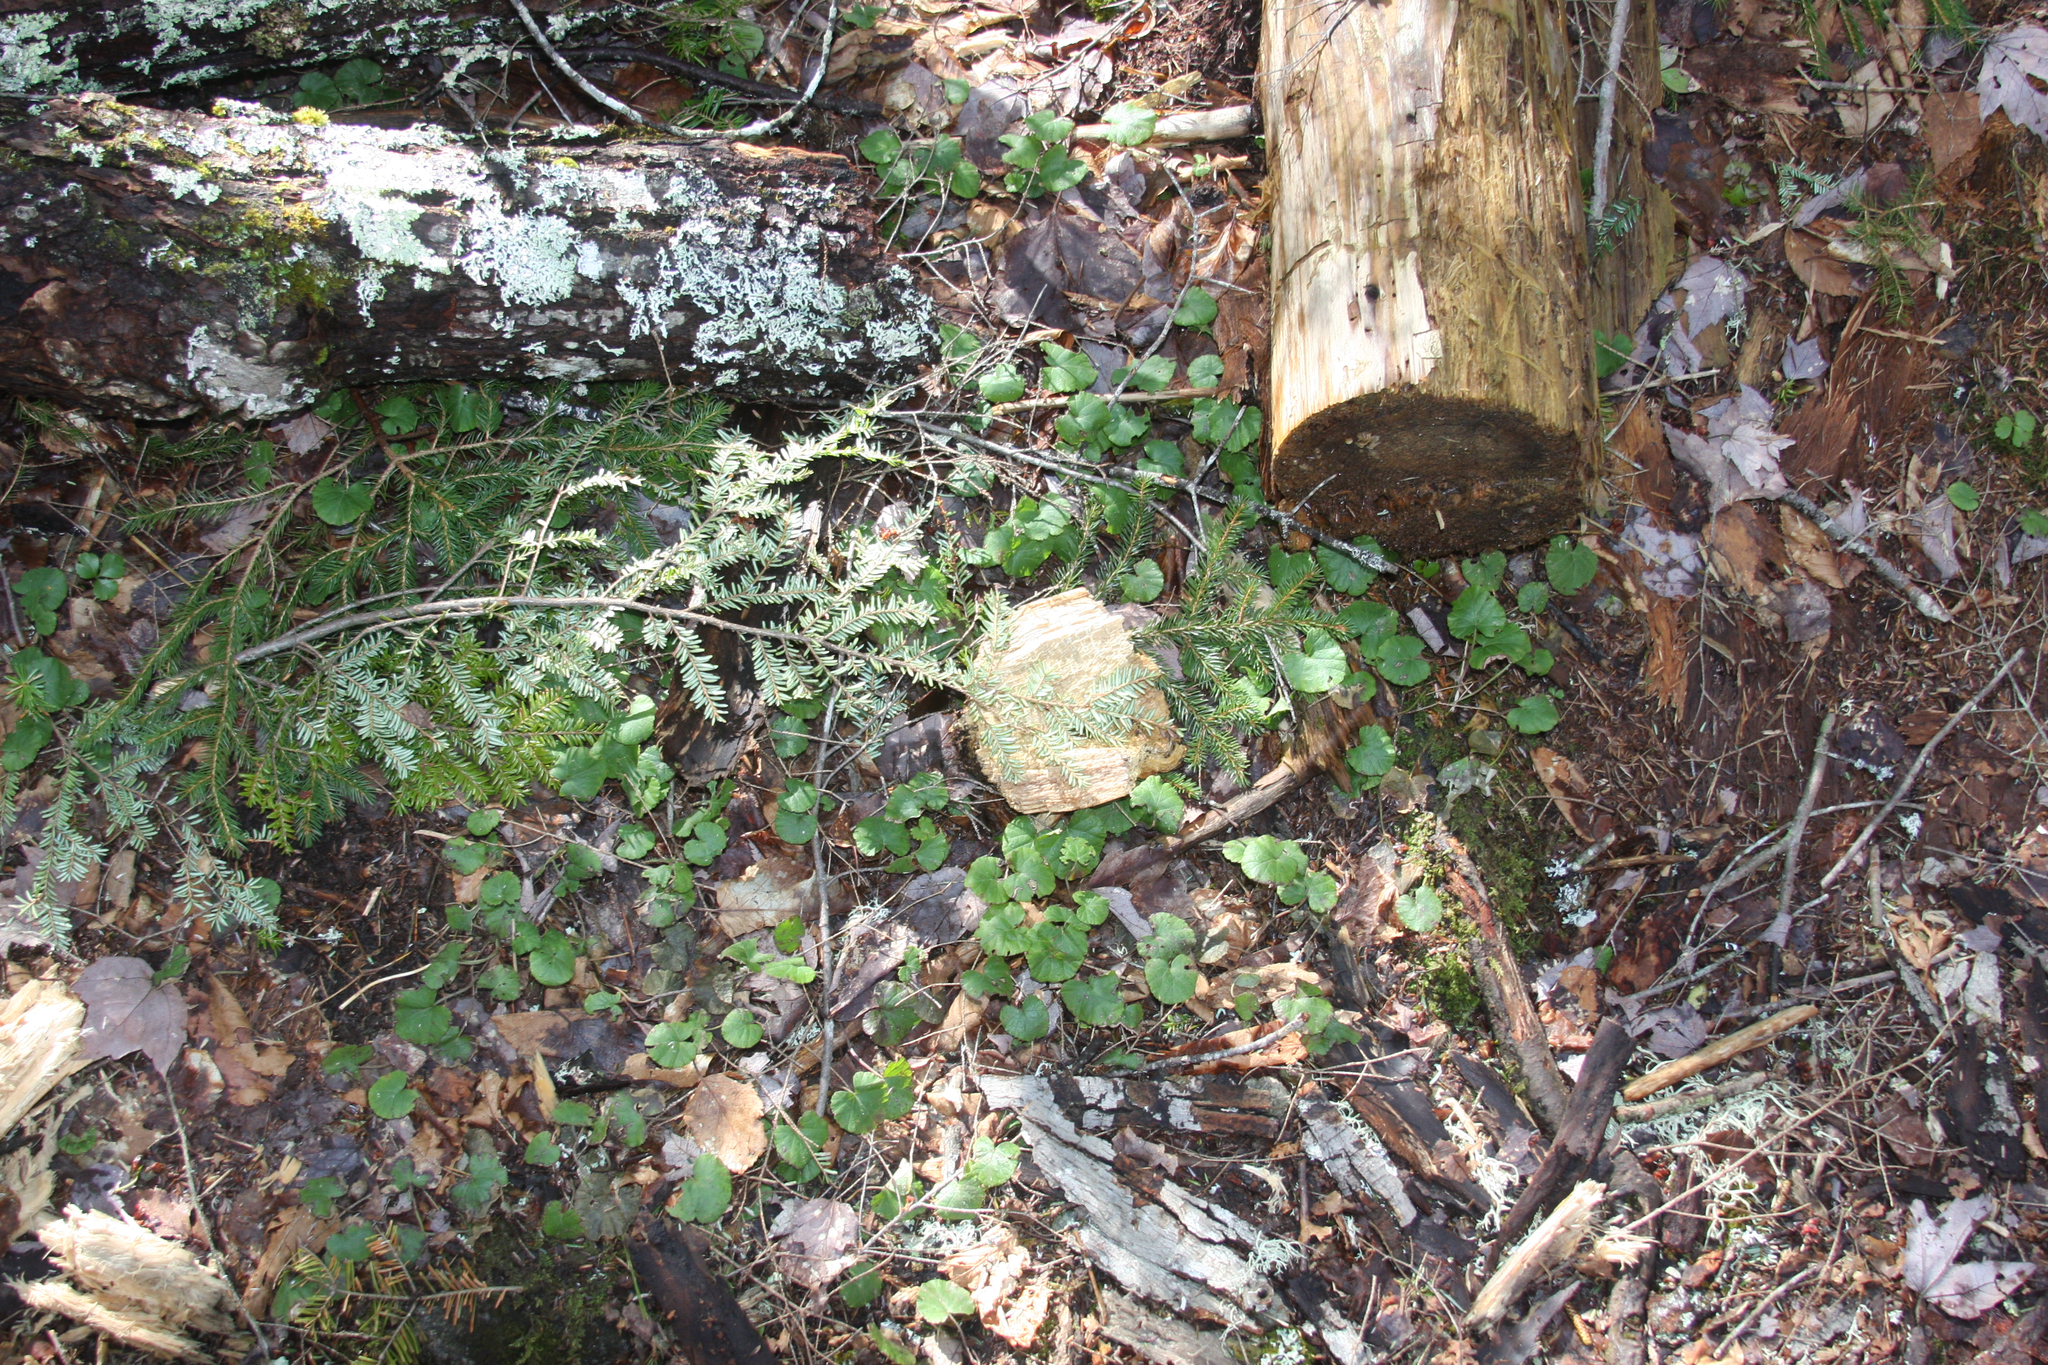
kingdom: Plantae
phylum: Tracheophyta
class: Magnoliopsida
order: Rosales
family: Rosaceae
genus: Dalibarda
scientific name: Dalibarda repens
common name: Dewdrop
